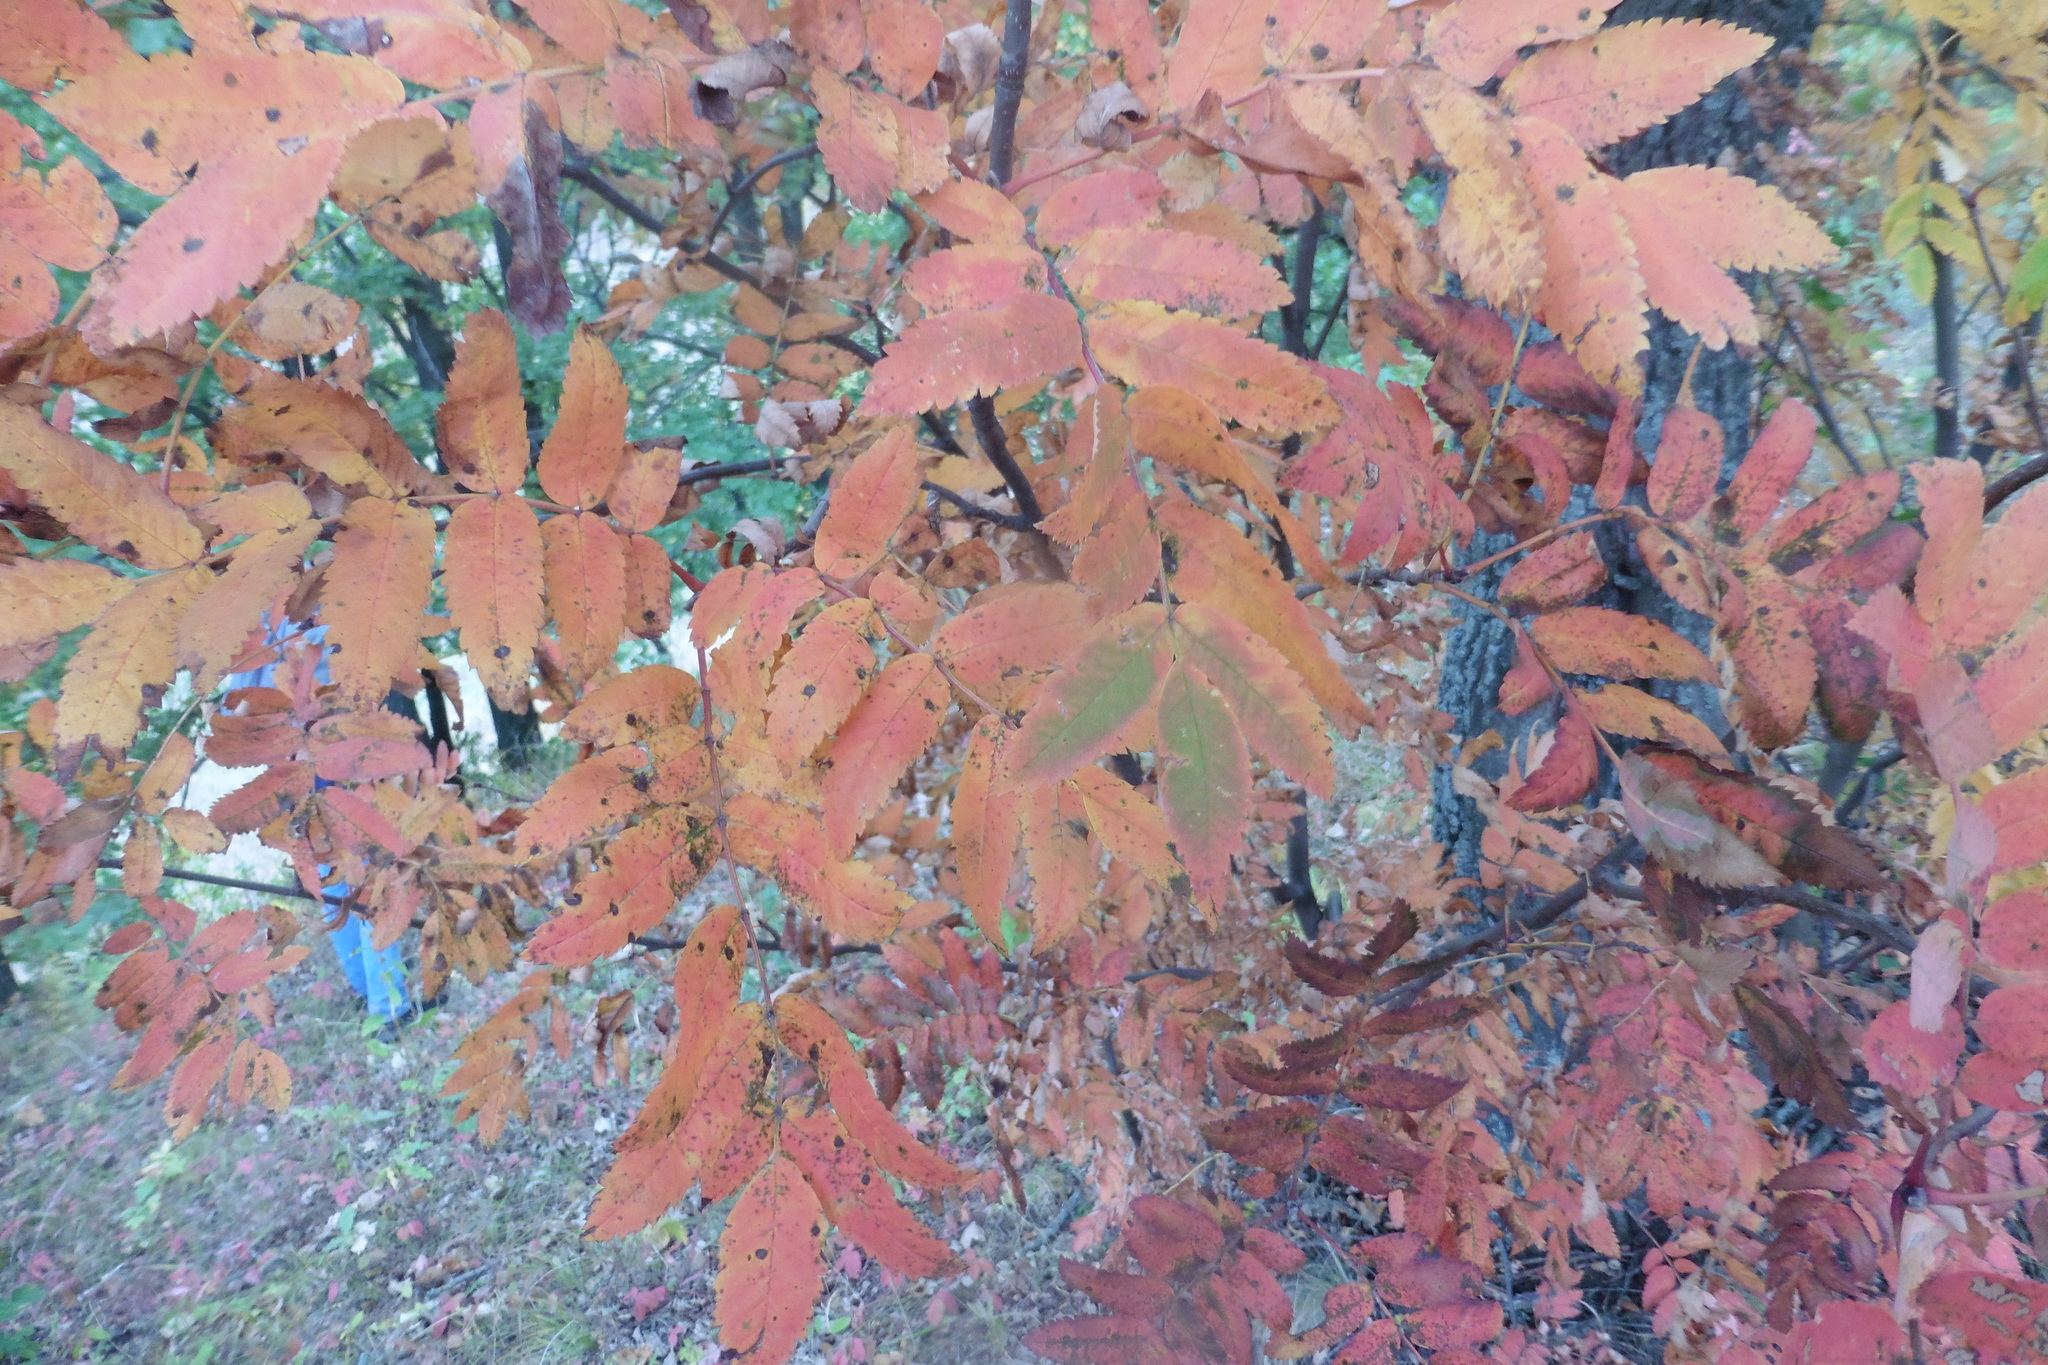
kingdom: Plantae
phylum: Tracheophyta
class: Magnoliopsida
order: Rosales
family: Rosaceae
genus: Sorbus
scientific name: Sorbus aucuparia
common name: Rowan
